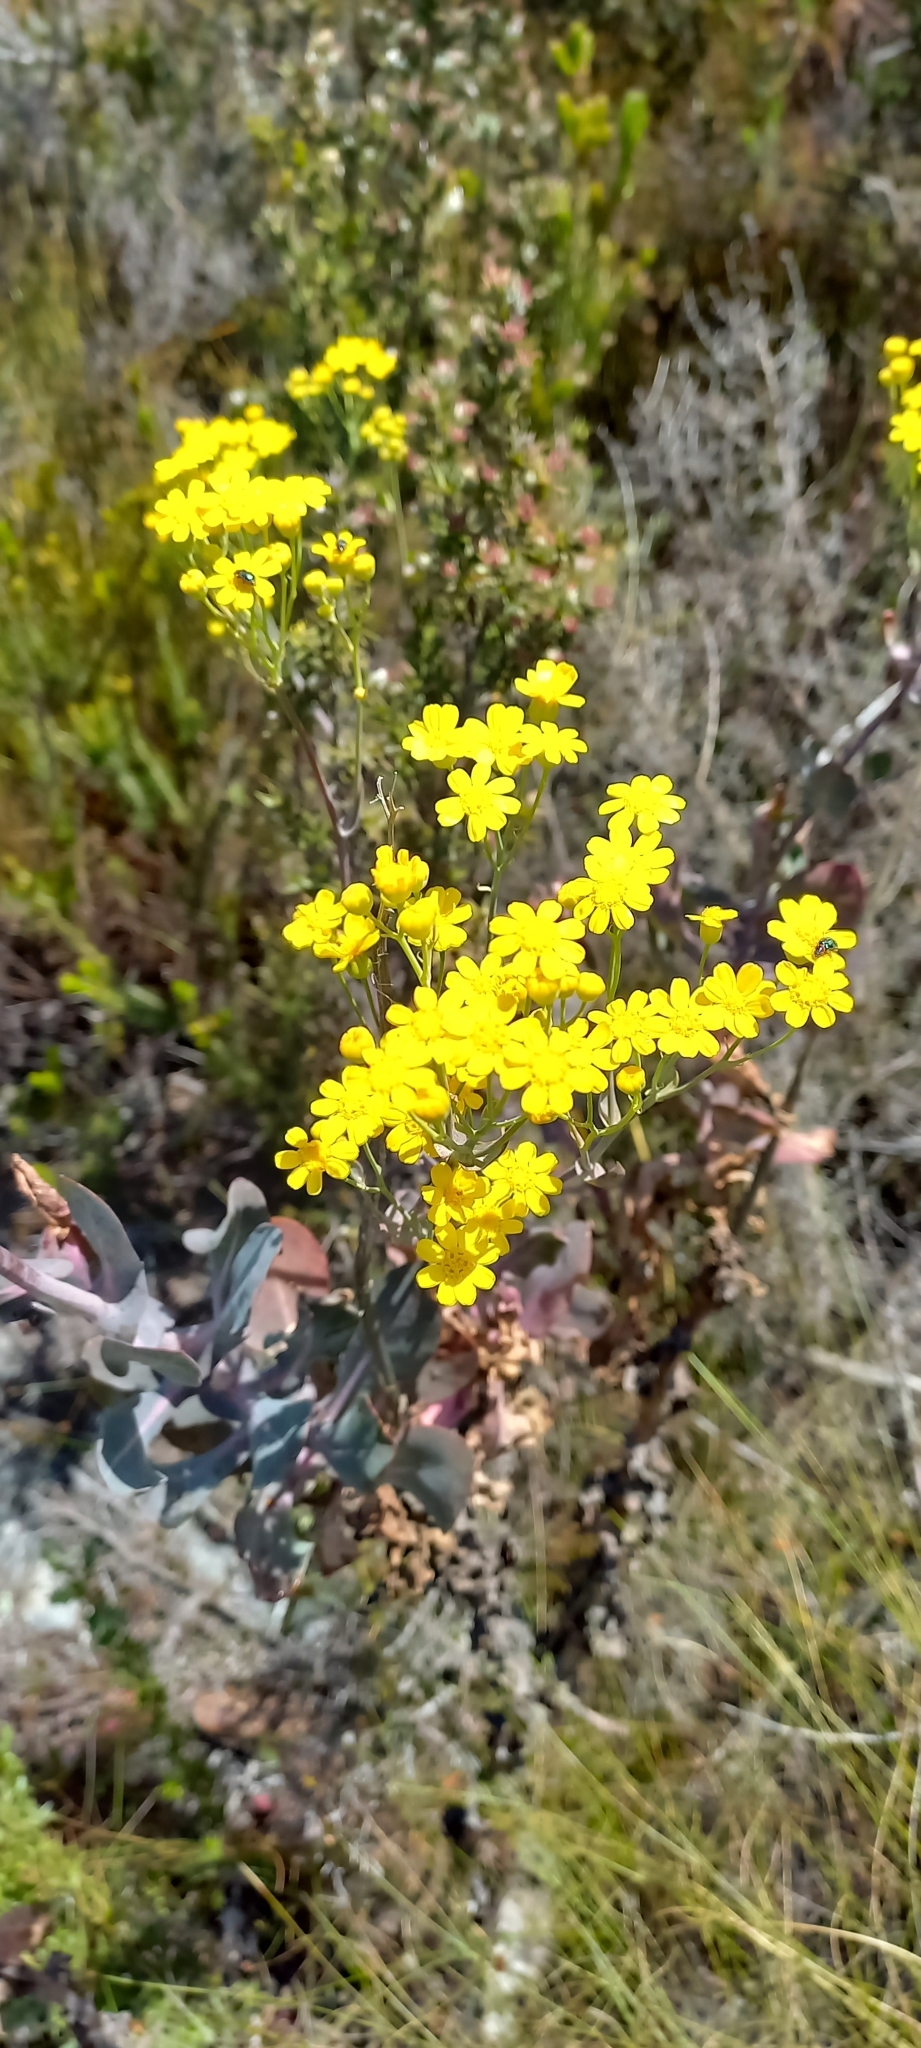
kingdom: Plantae
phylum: Tracheophyta
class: Magnoliopsida
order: Asterales
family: Asteraceae
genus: Othonna
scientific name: Othonna parviflora
